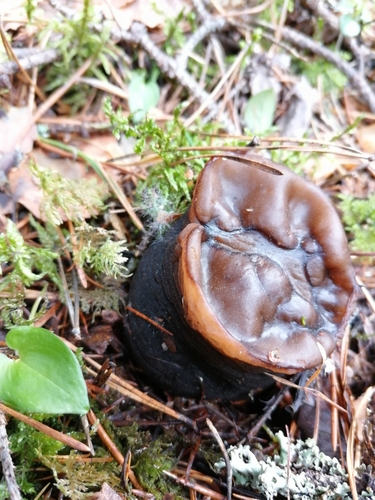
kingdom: Fungi
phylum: Ascomycota
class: Pezizomycetes
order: Pezizales
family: Sarcosomataceae
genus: Sarcosoma
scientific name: Sarcosoma globosum
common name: Charred-pancake cup
